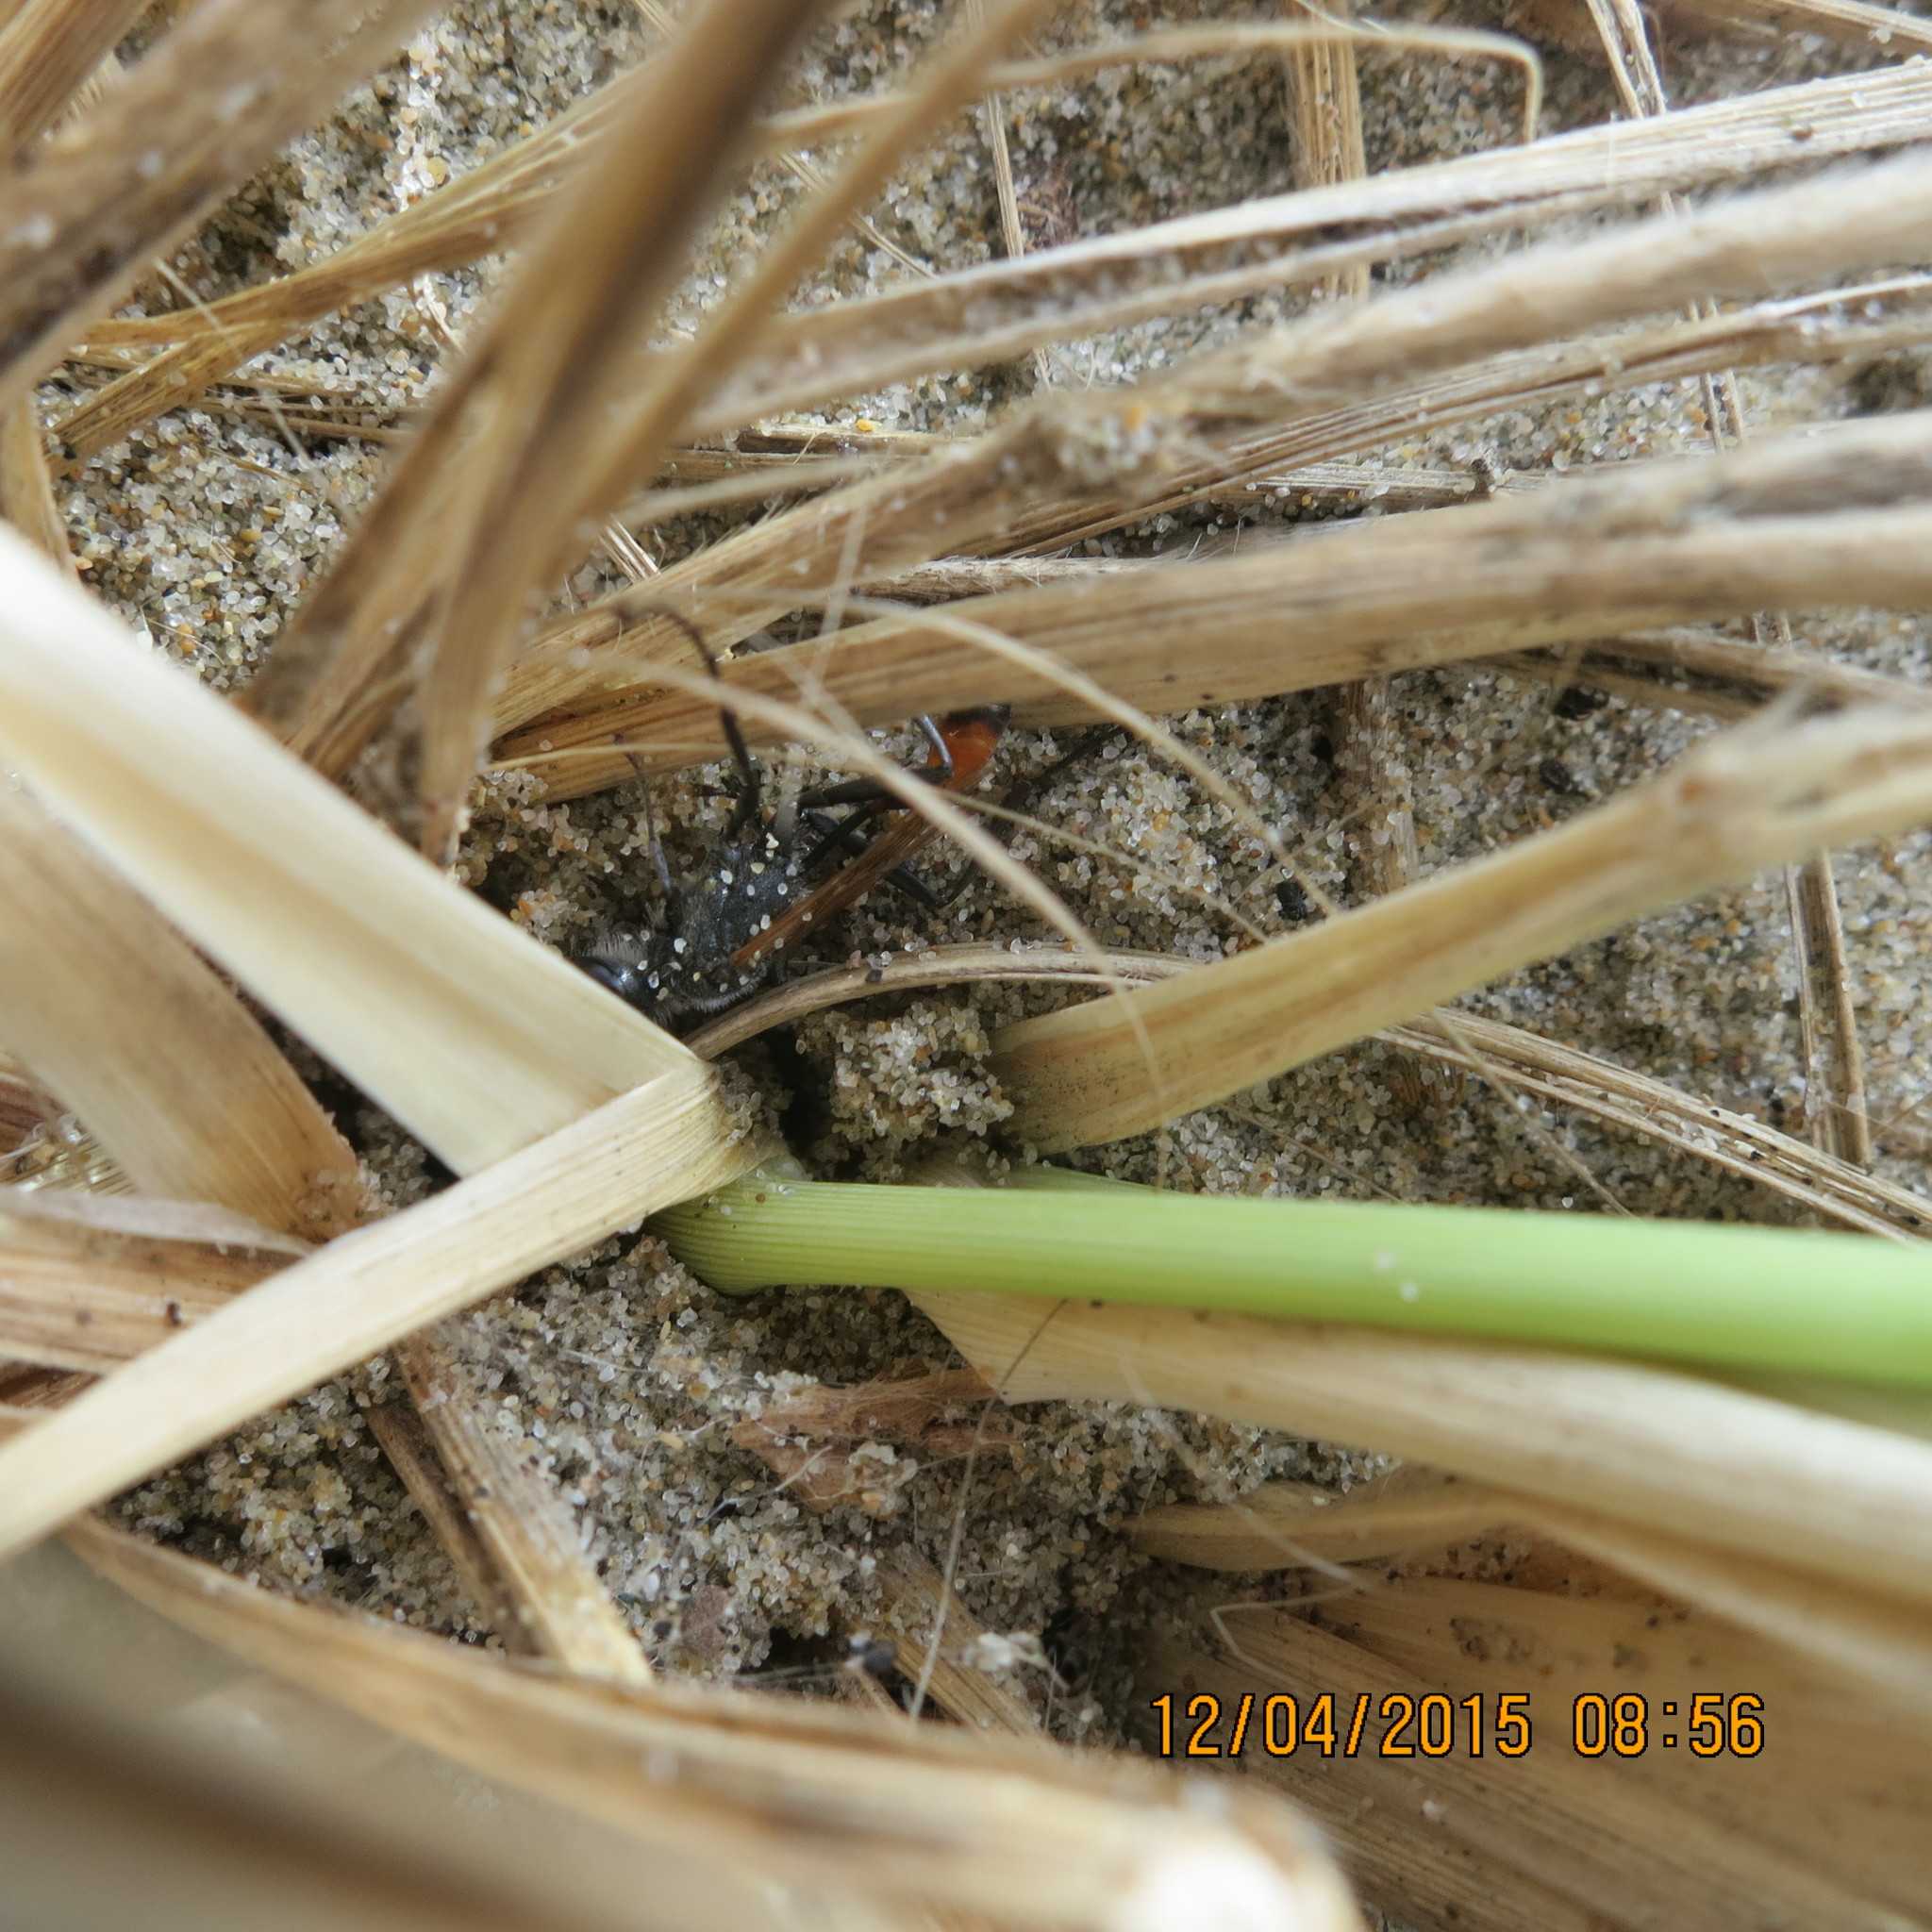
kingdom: Animalia
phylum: Arthropoda
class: Insecta
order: Hymenoptera
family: Sphecidae
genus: Podalonia
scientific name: Podalonia tydei
